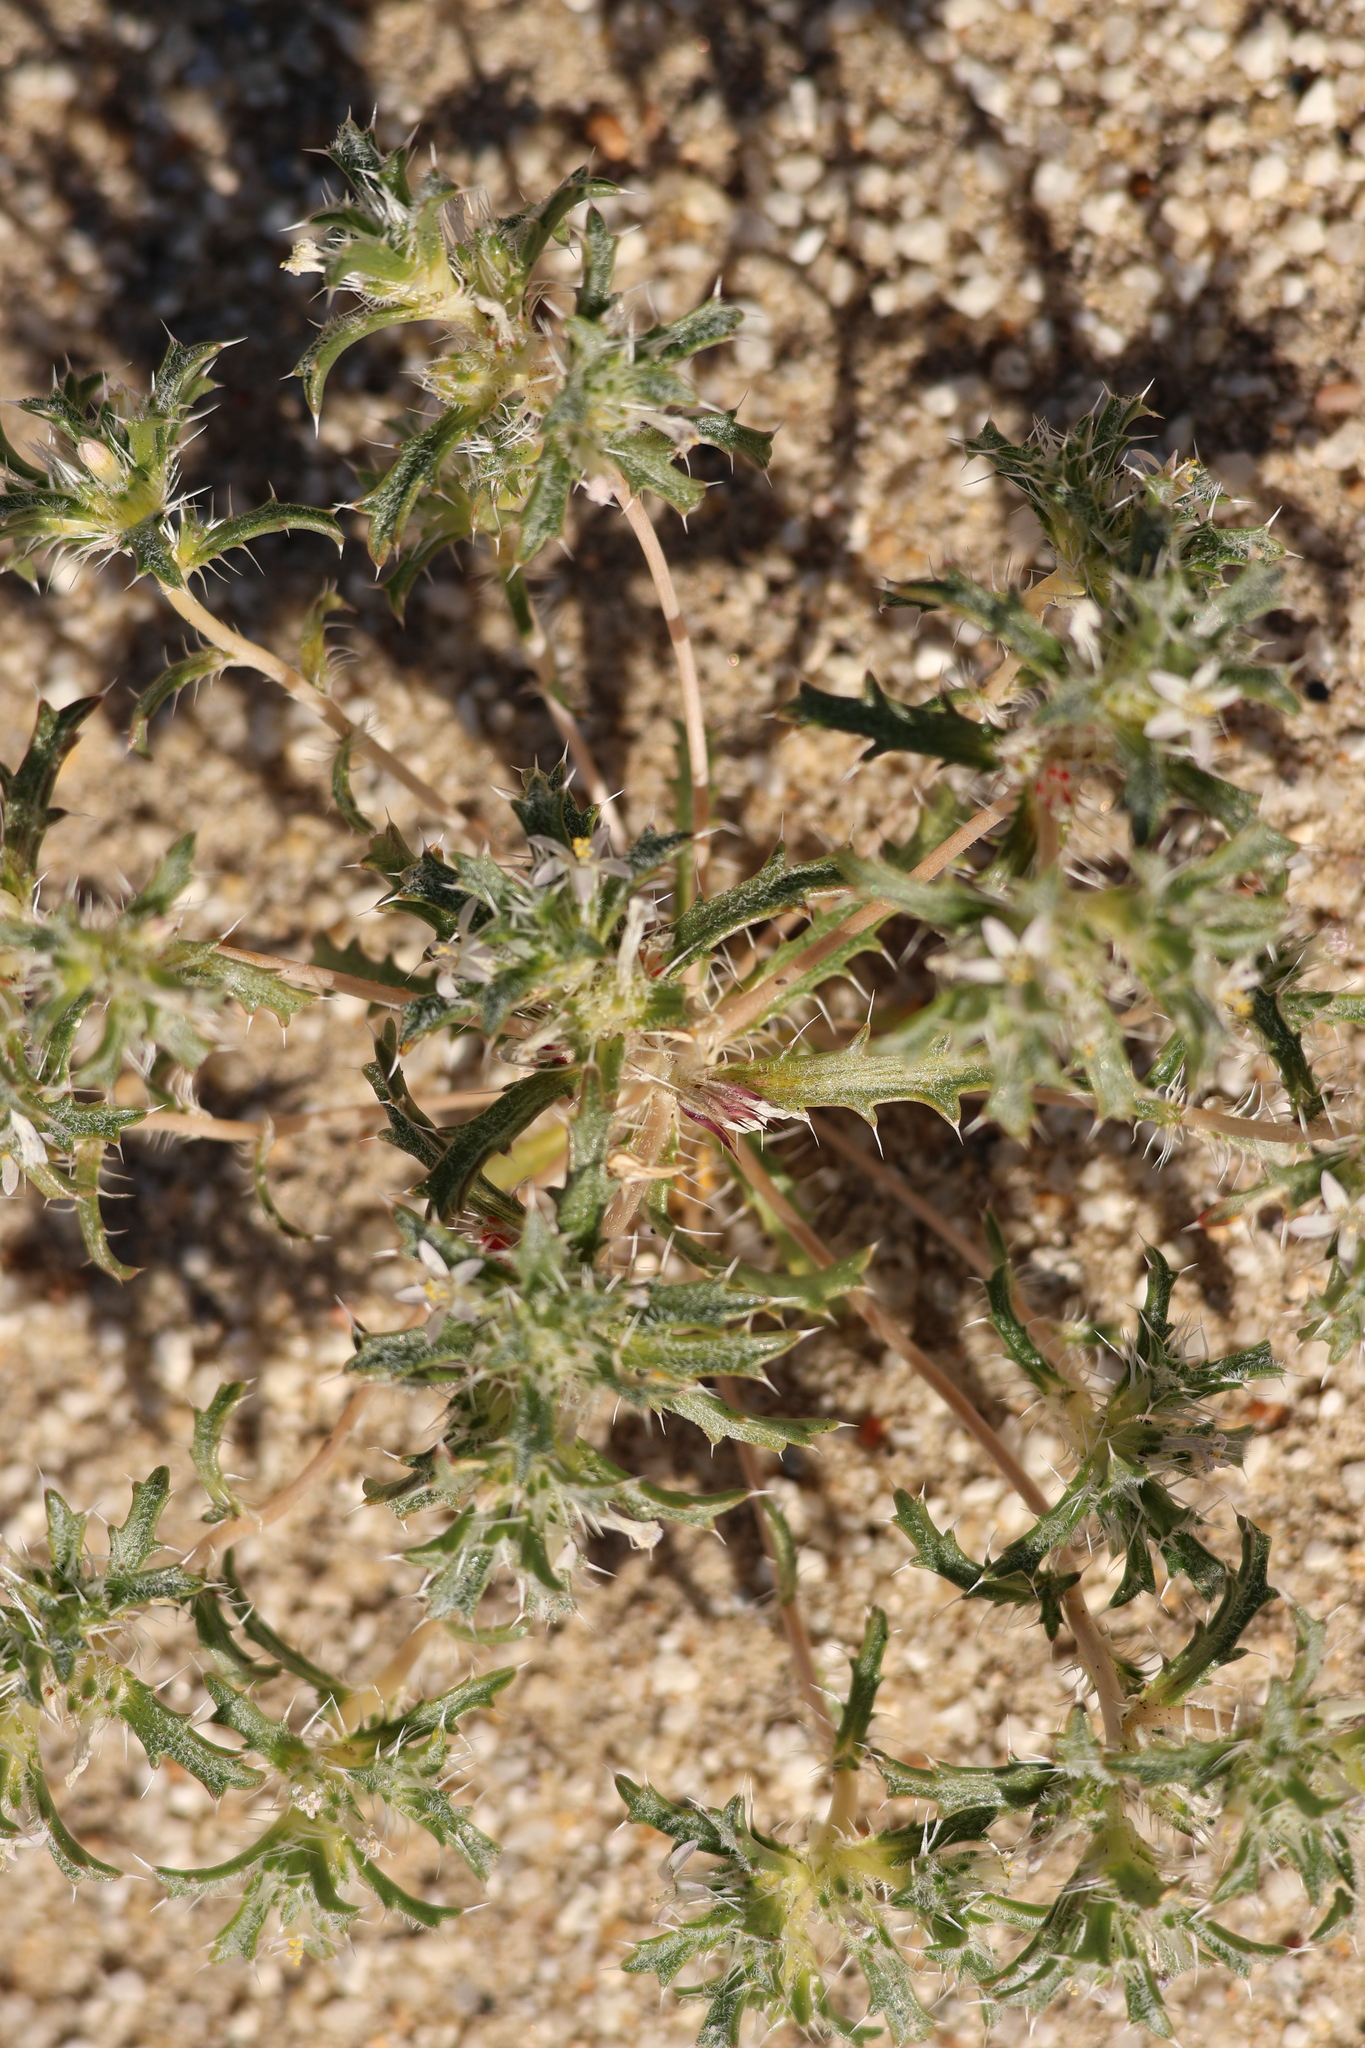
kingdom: Plantae
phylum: Tracheophyta
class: Magnoliopsida
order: Ericales
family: Polemoniaceae
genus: Loeseliastrum
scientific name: Loeseliastrum schottii
